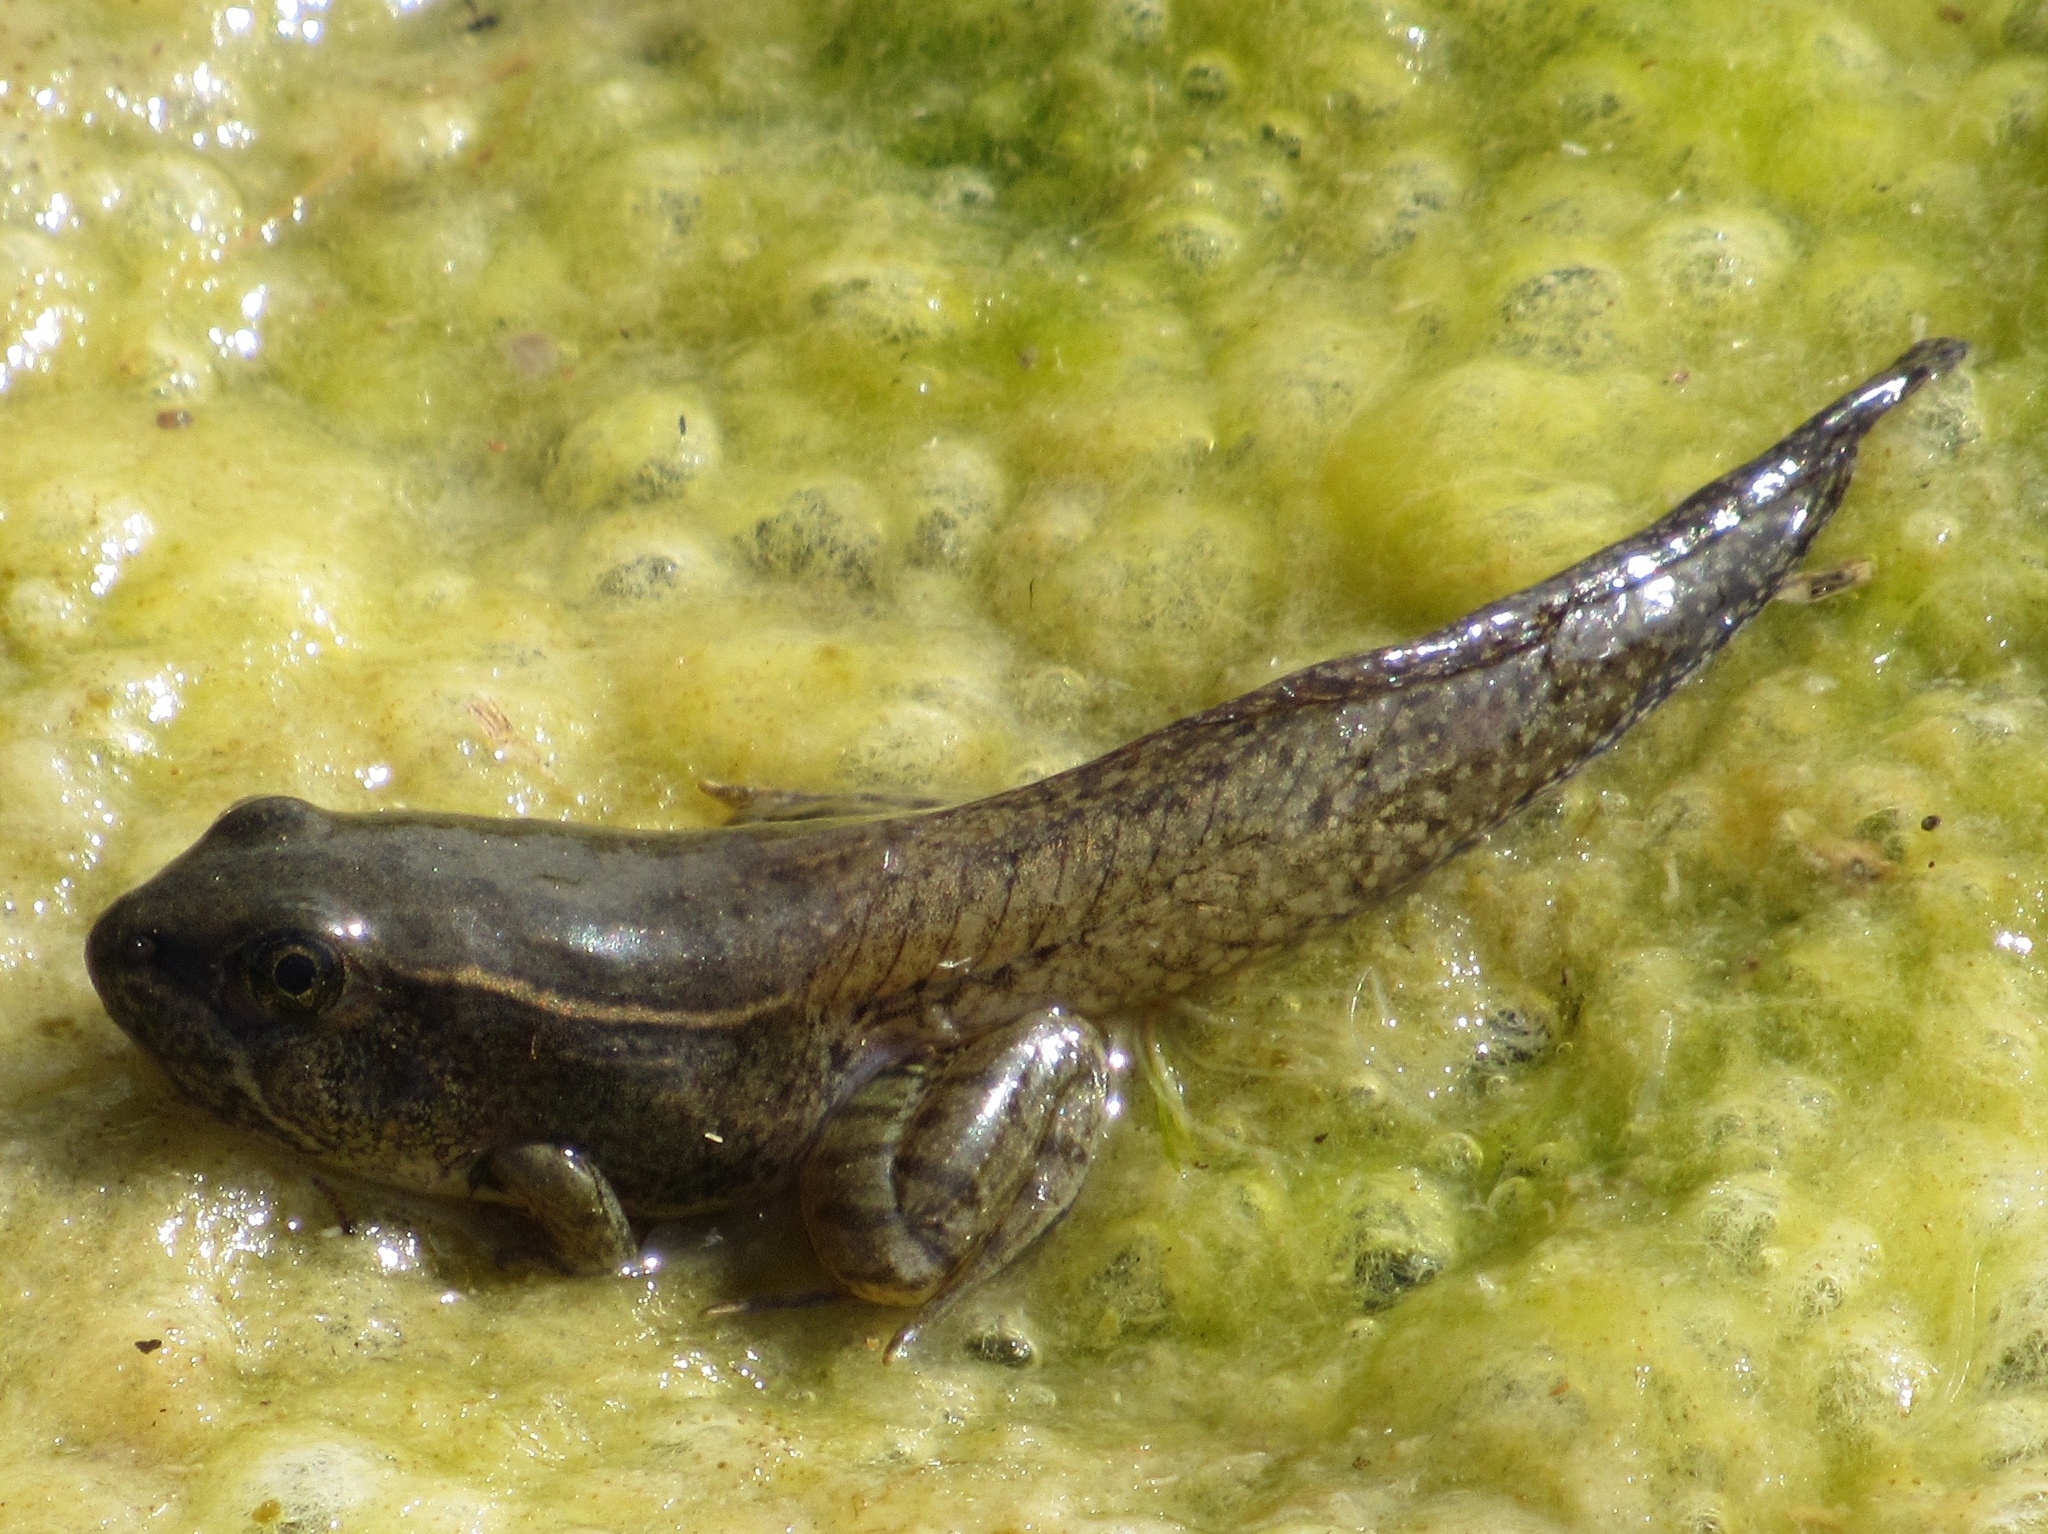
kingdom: Animalia
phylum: Chordata
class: Amphibia
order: Anura
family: Ranidae
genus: Lithobates
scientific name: Lithobates blairi
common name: Plains leopard frog
